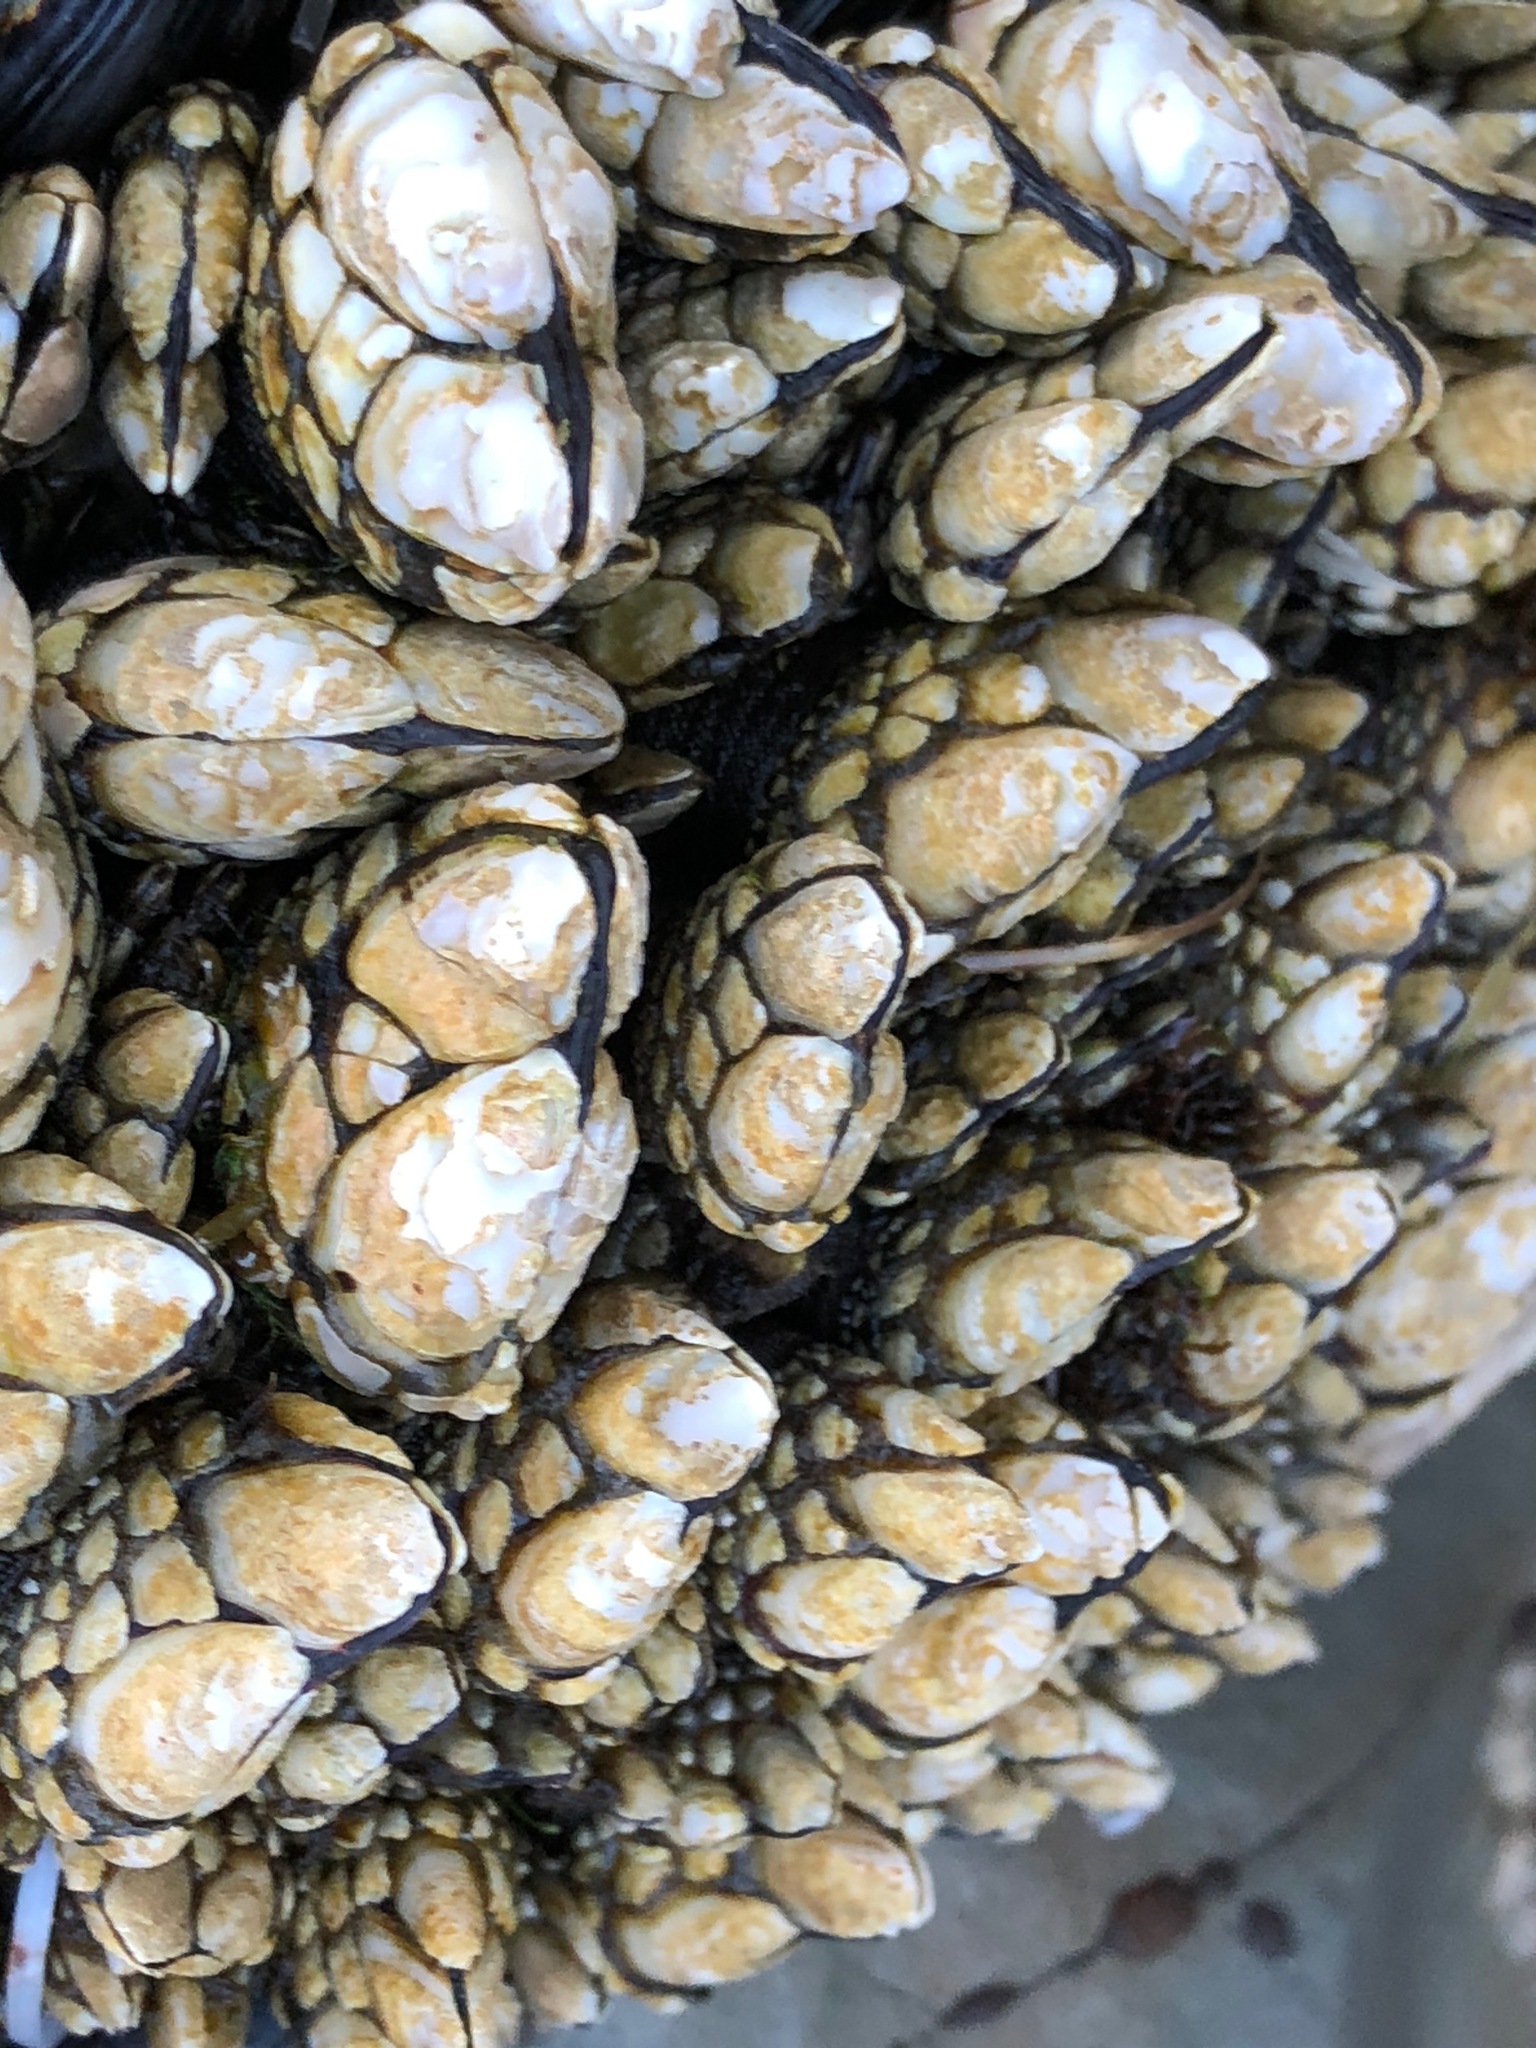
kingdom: Animalia
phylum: Arthropoda
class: Maxillopoda
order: Pedunculata
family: Pollicipedidae
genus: Pollicipes
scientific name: Pollicipes polymerus
